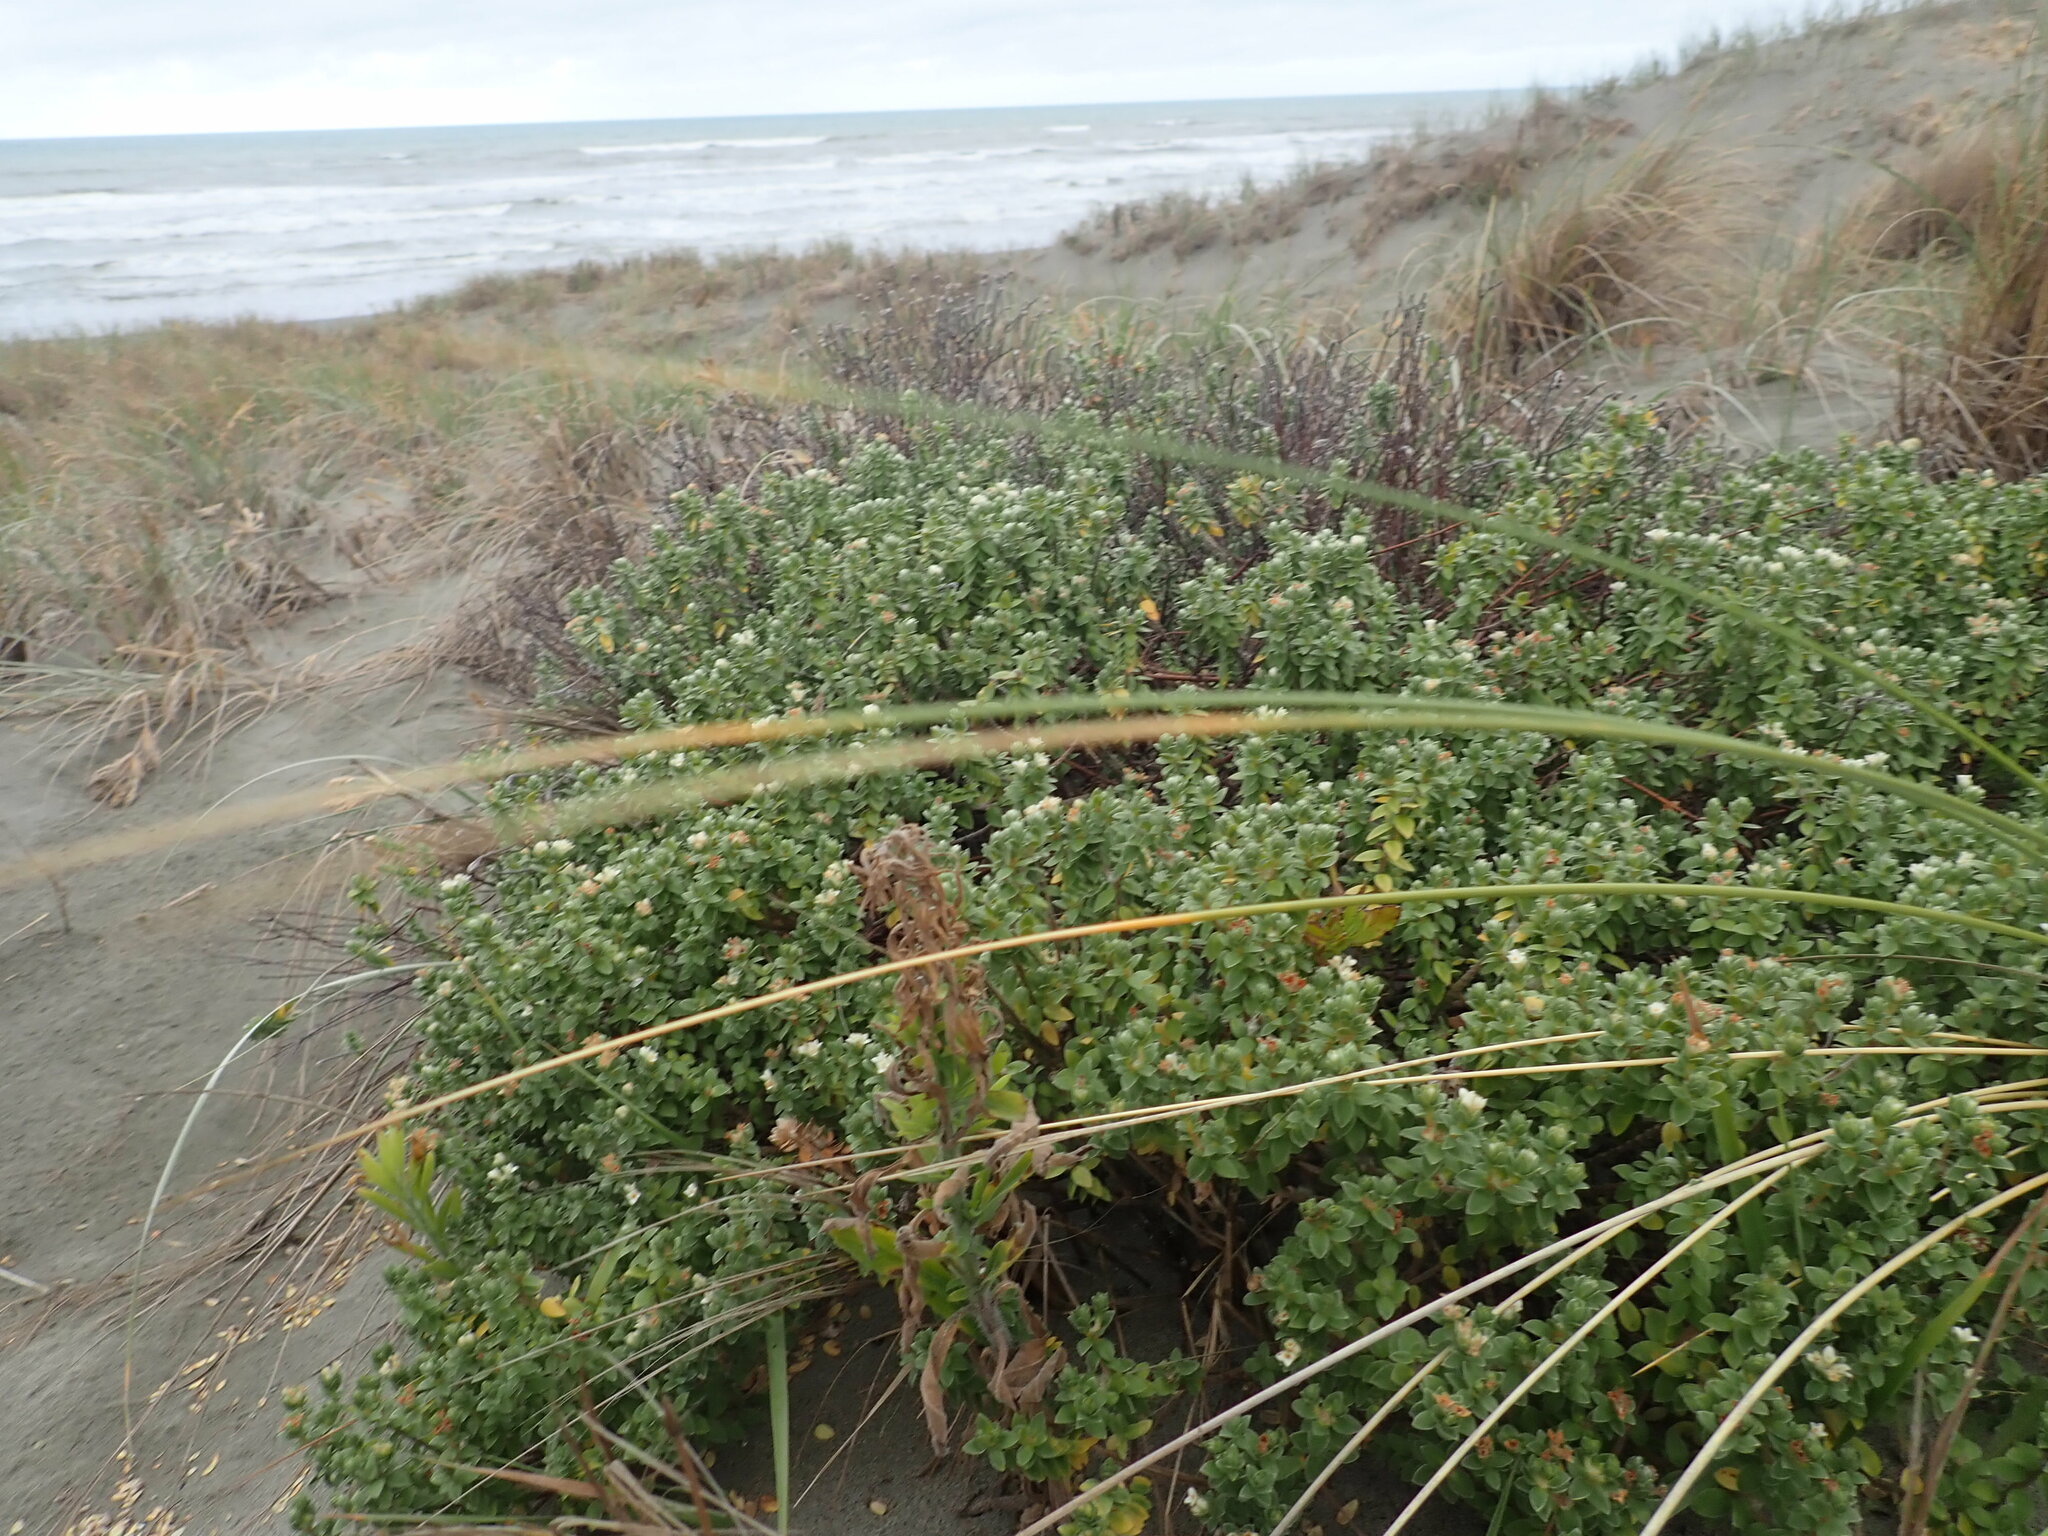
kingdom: Plantae
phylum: Tracheophyta
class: Magnoliopsida
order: Malvales
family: Thymelaeaceae
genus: Pimelea
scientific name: Pimelea villosa
